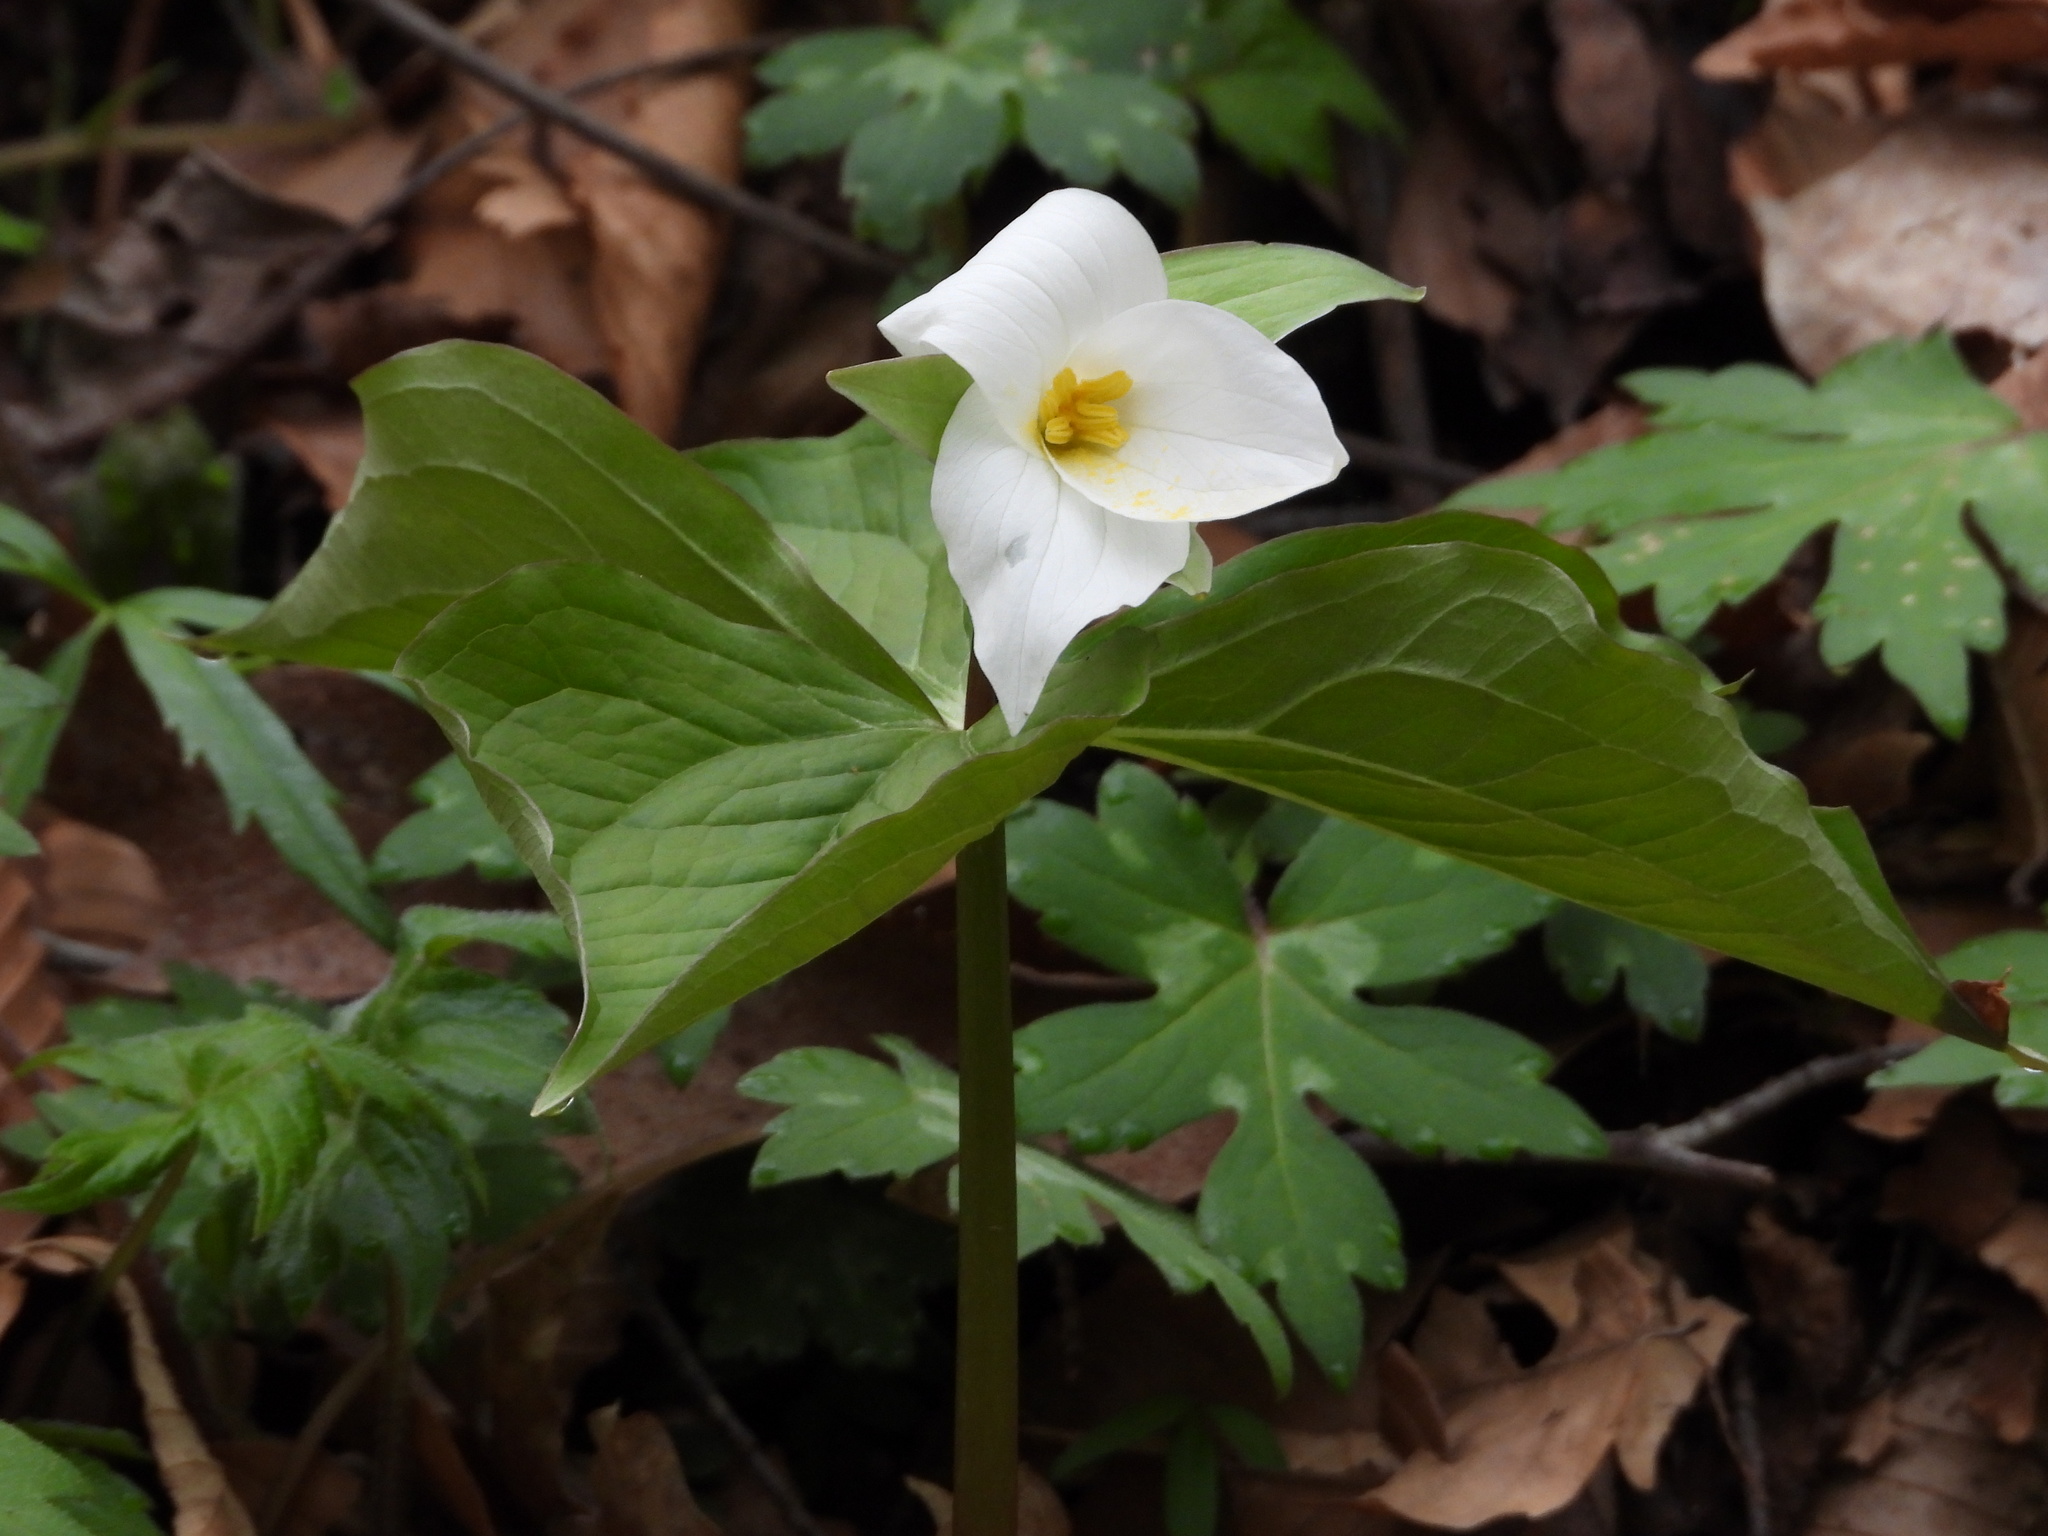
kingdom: Plantae
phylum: Tracheophyta
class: Liliopsida
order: Liliales
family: Melanthiaceae
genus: Trillium
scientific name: Trillium grandiflorum
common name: Great white trillium
